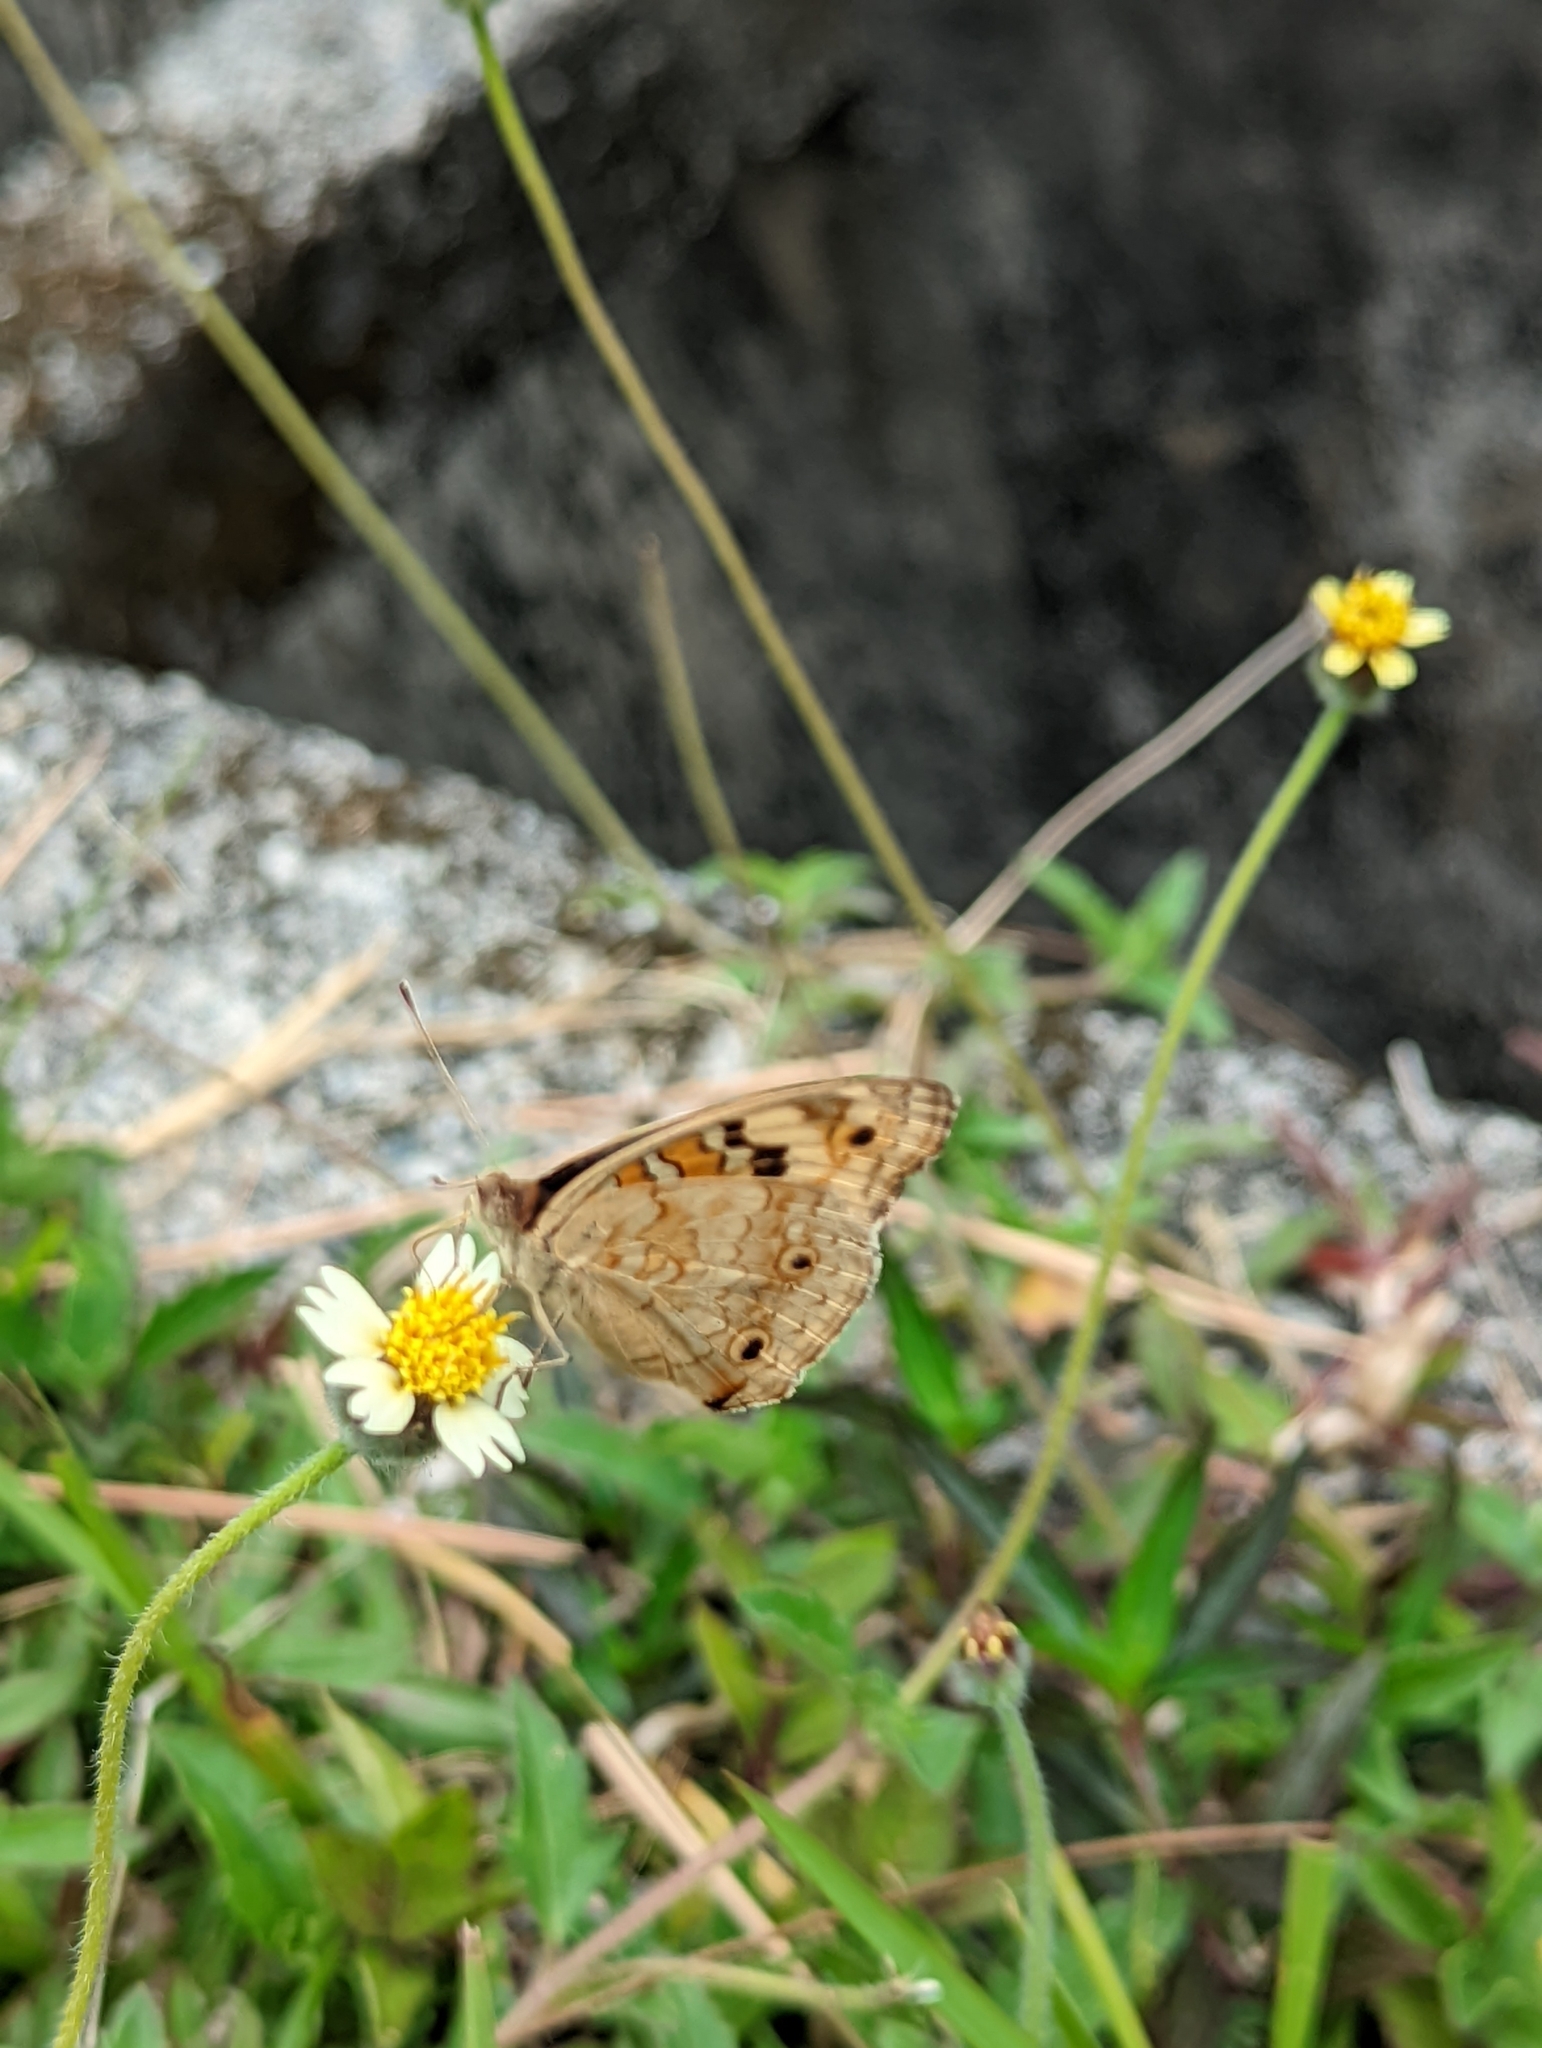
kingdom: Animalia
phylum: Arthropoda
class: Insecta
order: Lepidoptera
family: Nymphalidae
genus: Junonia
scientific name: Junonia orithya
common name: Blue pansy
